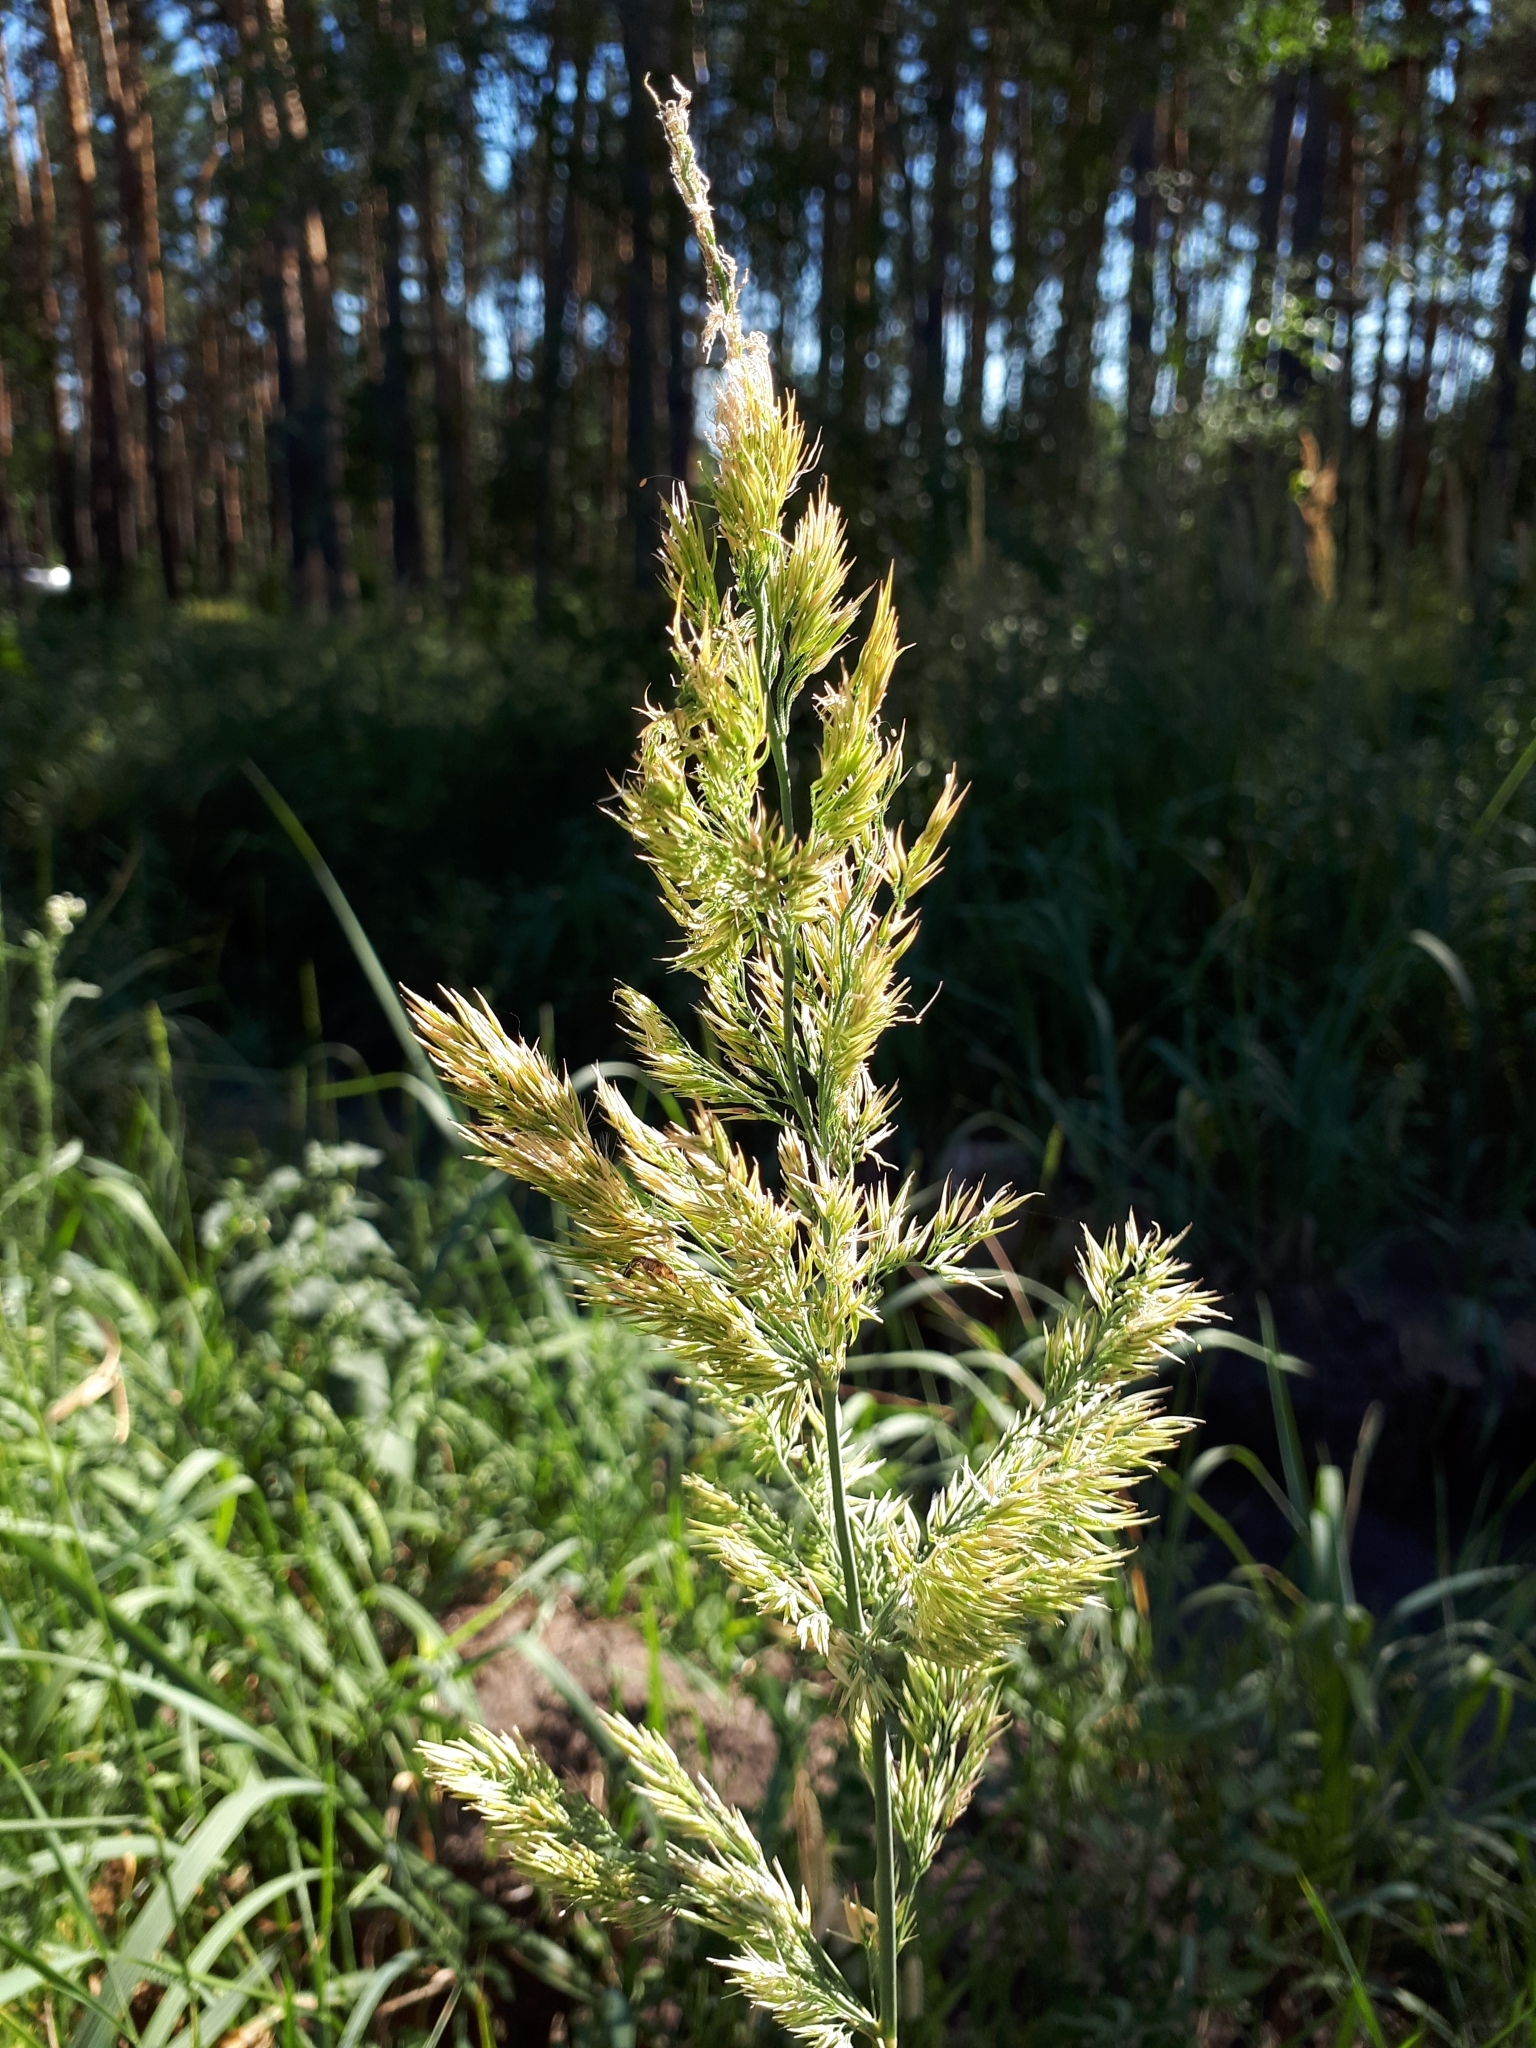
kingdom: Plantae
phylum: Tracheophyta
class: Liliopsida
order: Poales
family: Poaceae
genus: Calamagrostis
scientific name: Calamagrostis epigejos
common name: Wood small-reed
